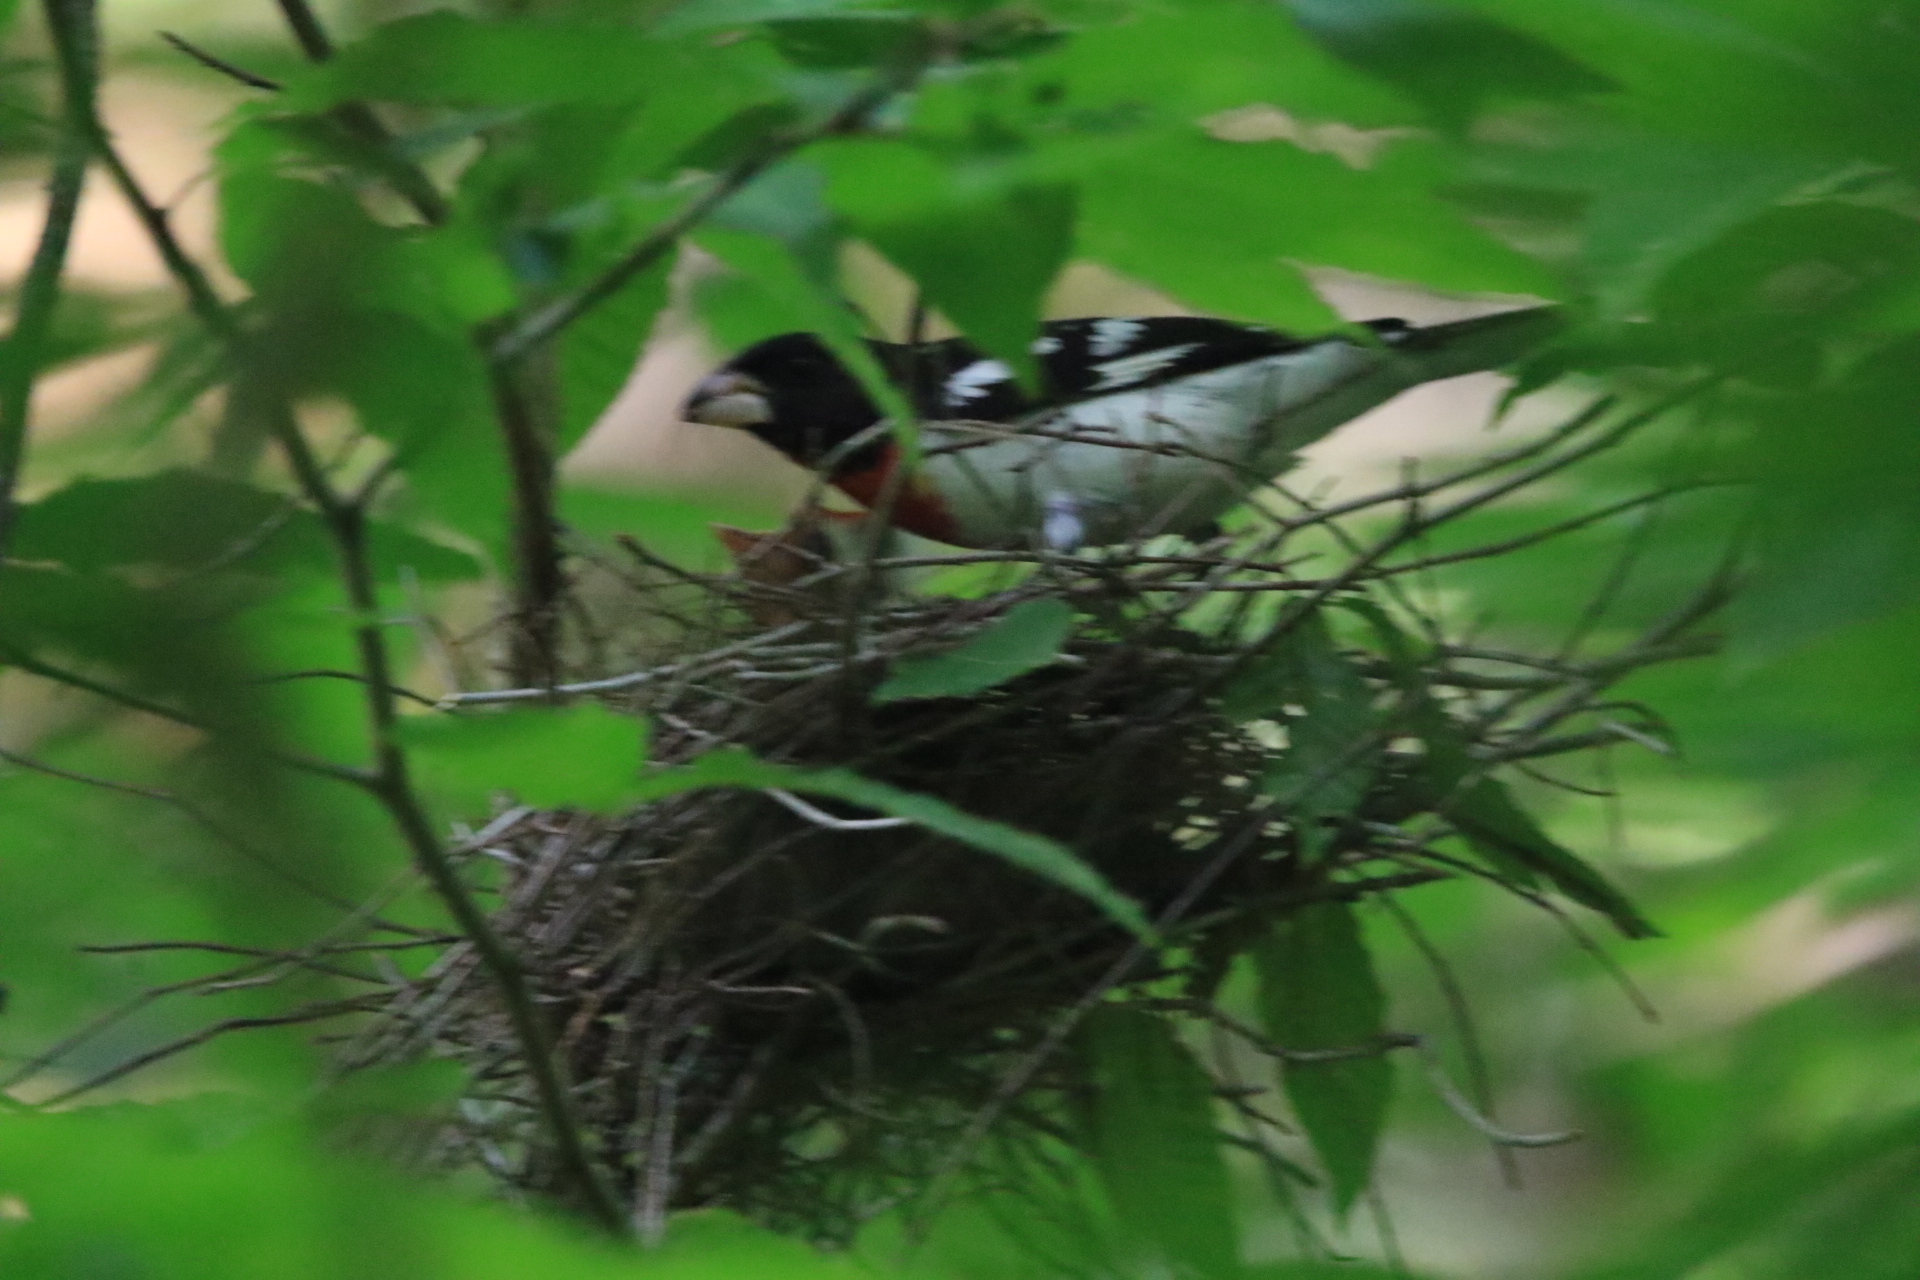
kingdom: Animalia
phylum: Chordata
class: Aves
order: Passeriformes
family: Cardinalidae
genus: Pheucticus
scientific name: Pheucticus ludovicianus
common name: Rose-breasted grosbeak
